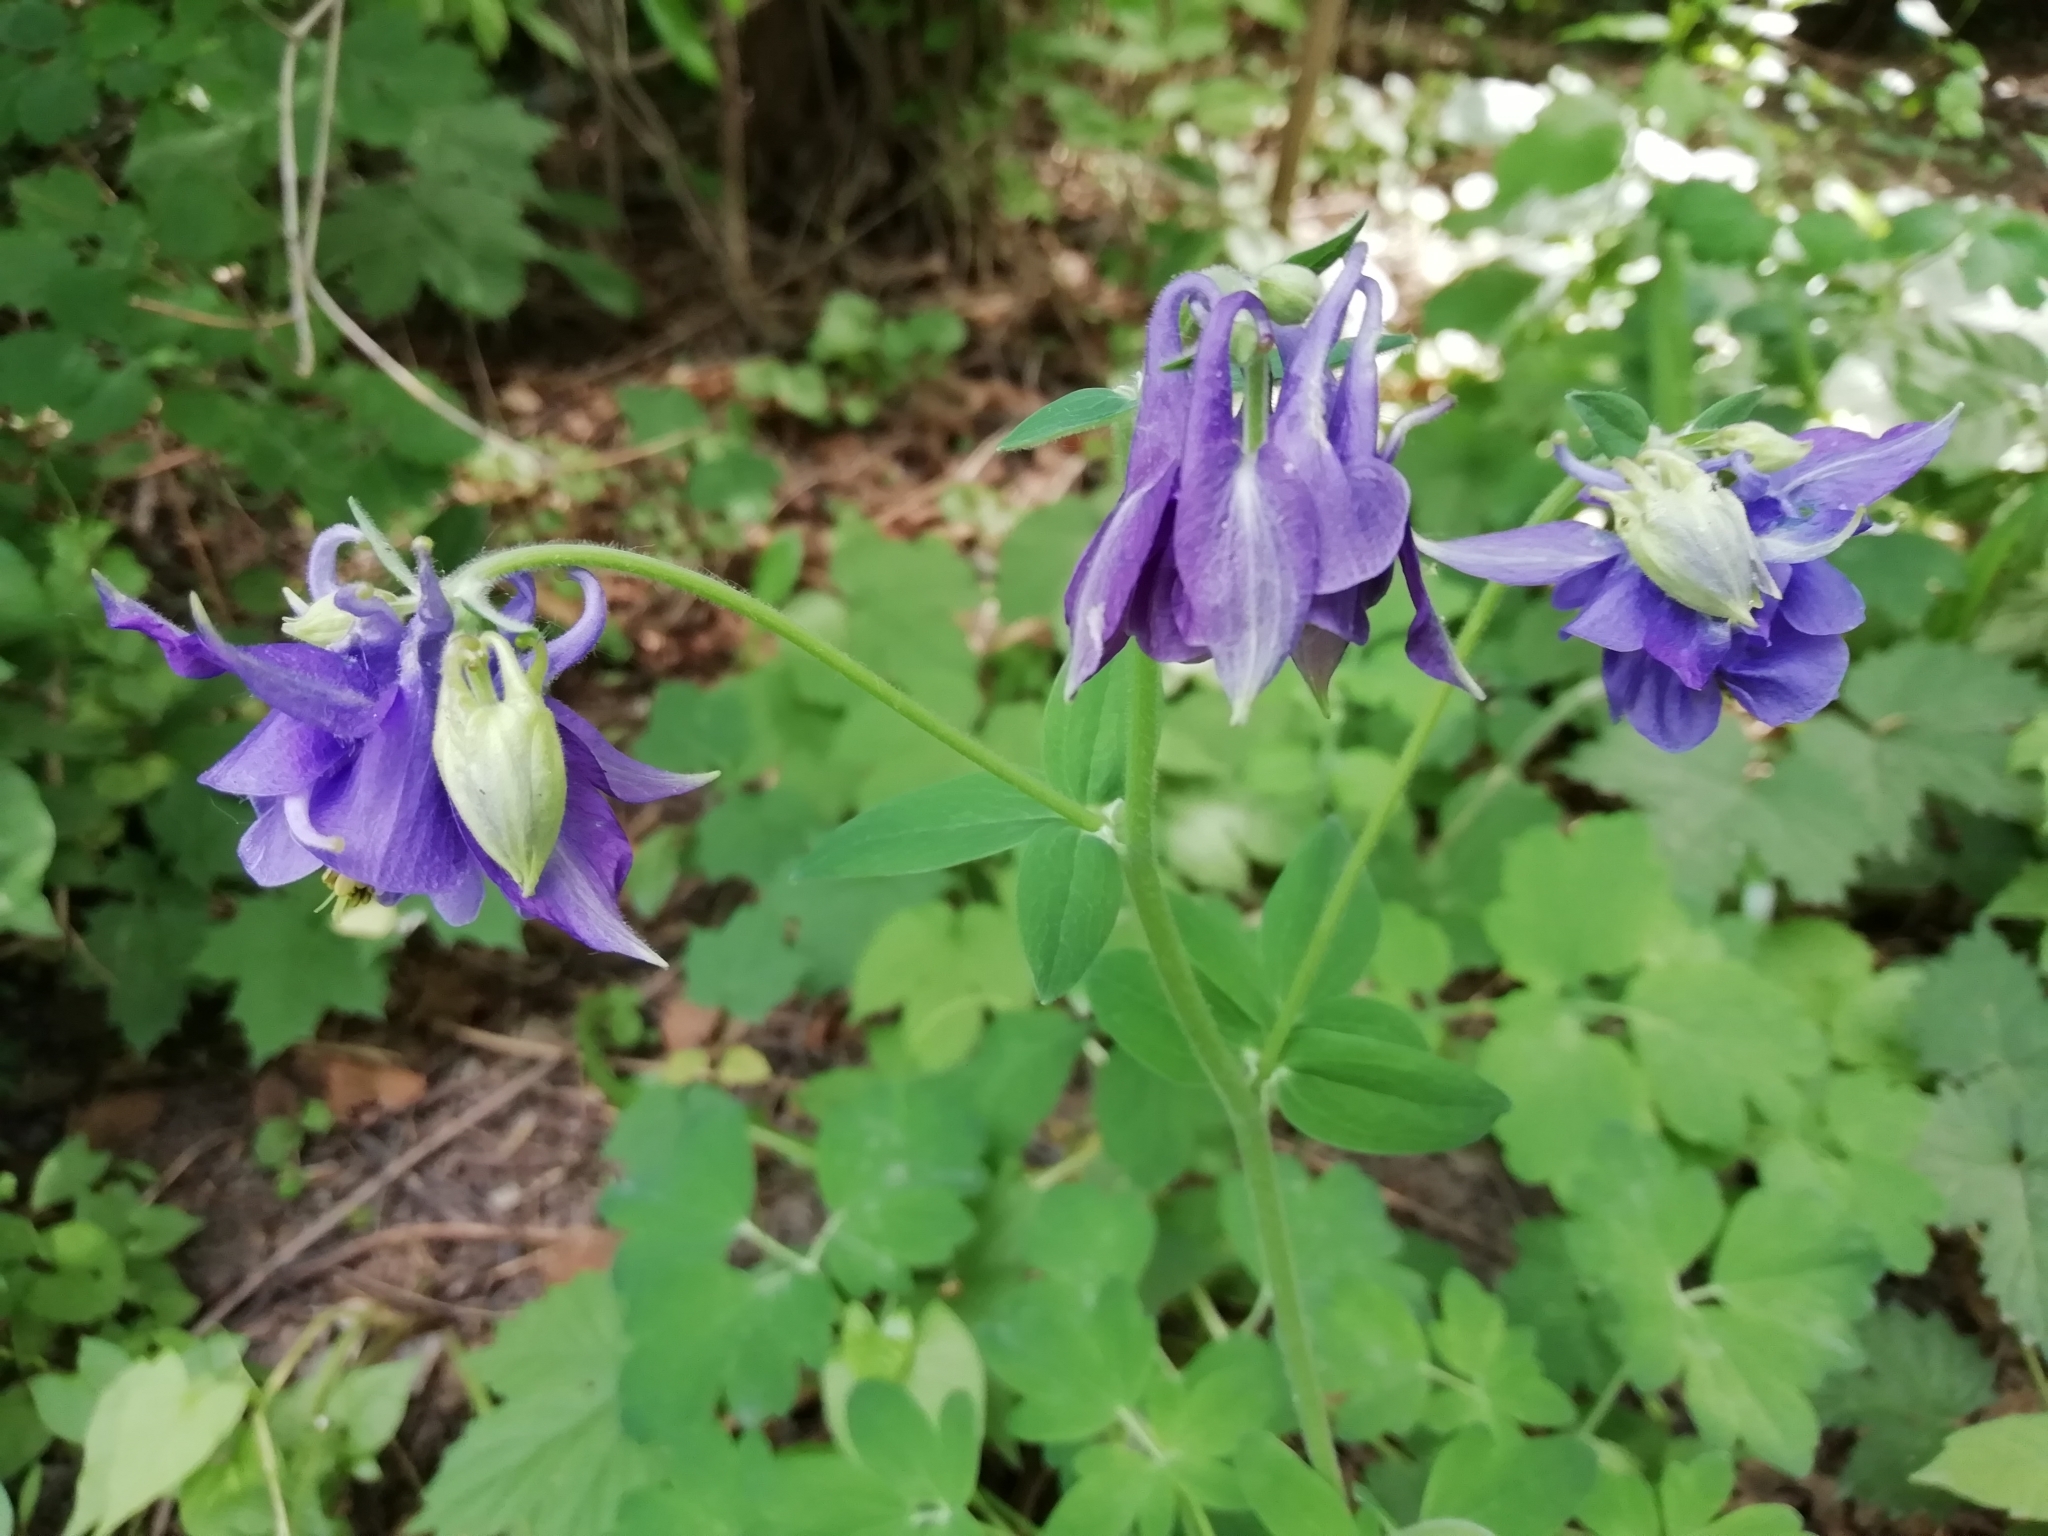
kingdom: Plantae
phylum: Tracheophyta
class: Magnoliopsida
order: Ranunculales
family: Ranunculaceae
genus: Aquilegia
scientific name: Aquilegia vulgaris
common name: Columbine
